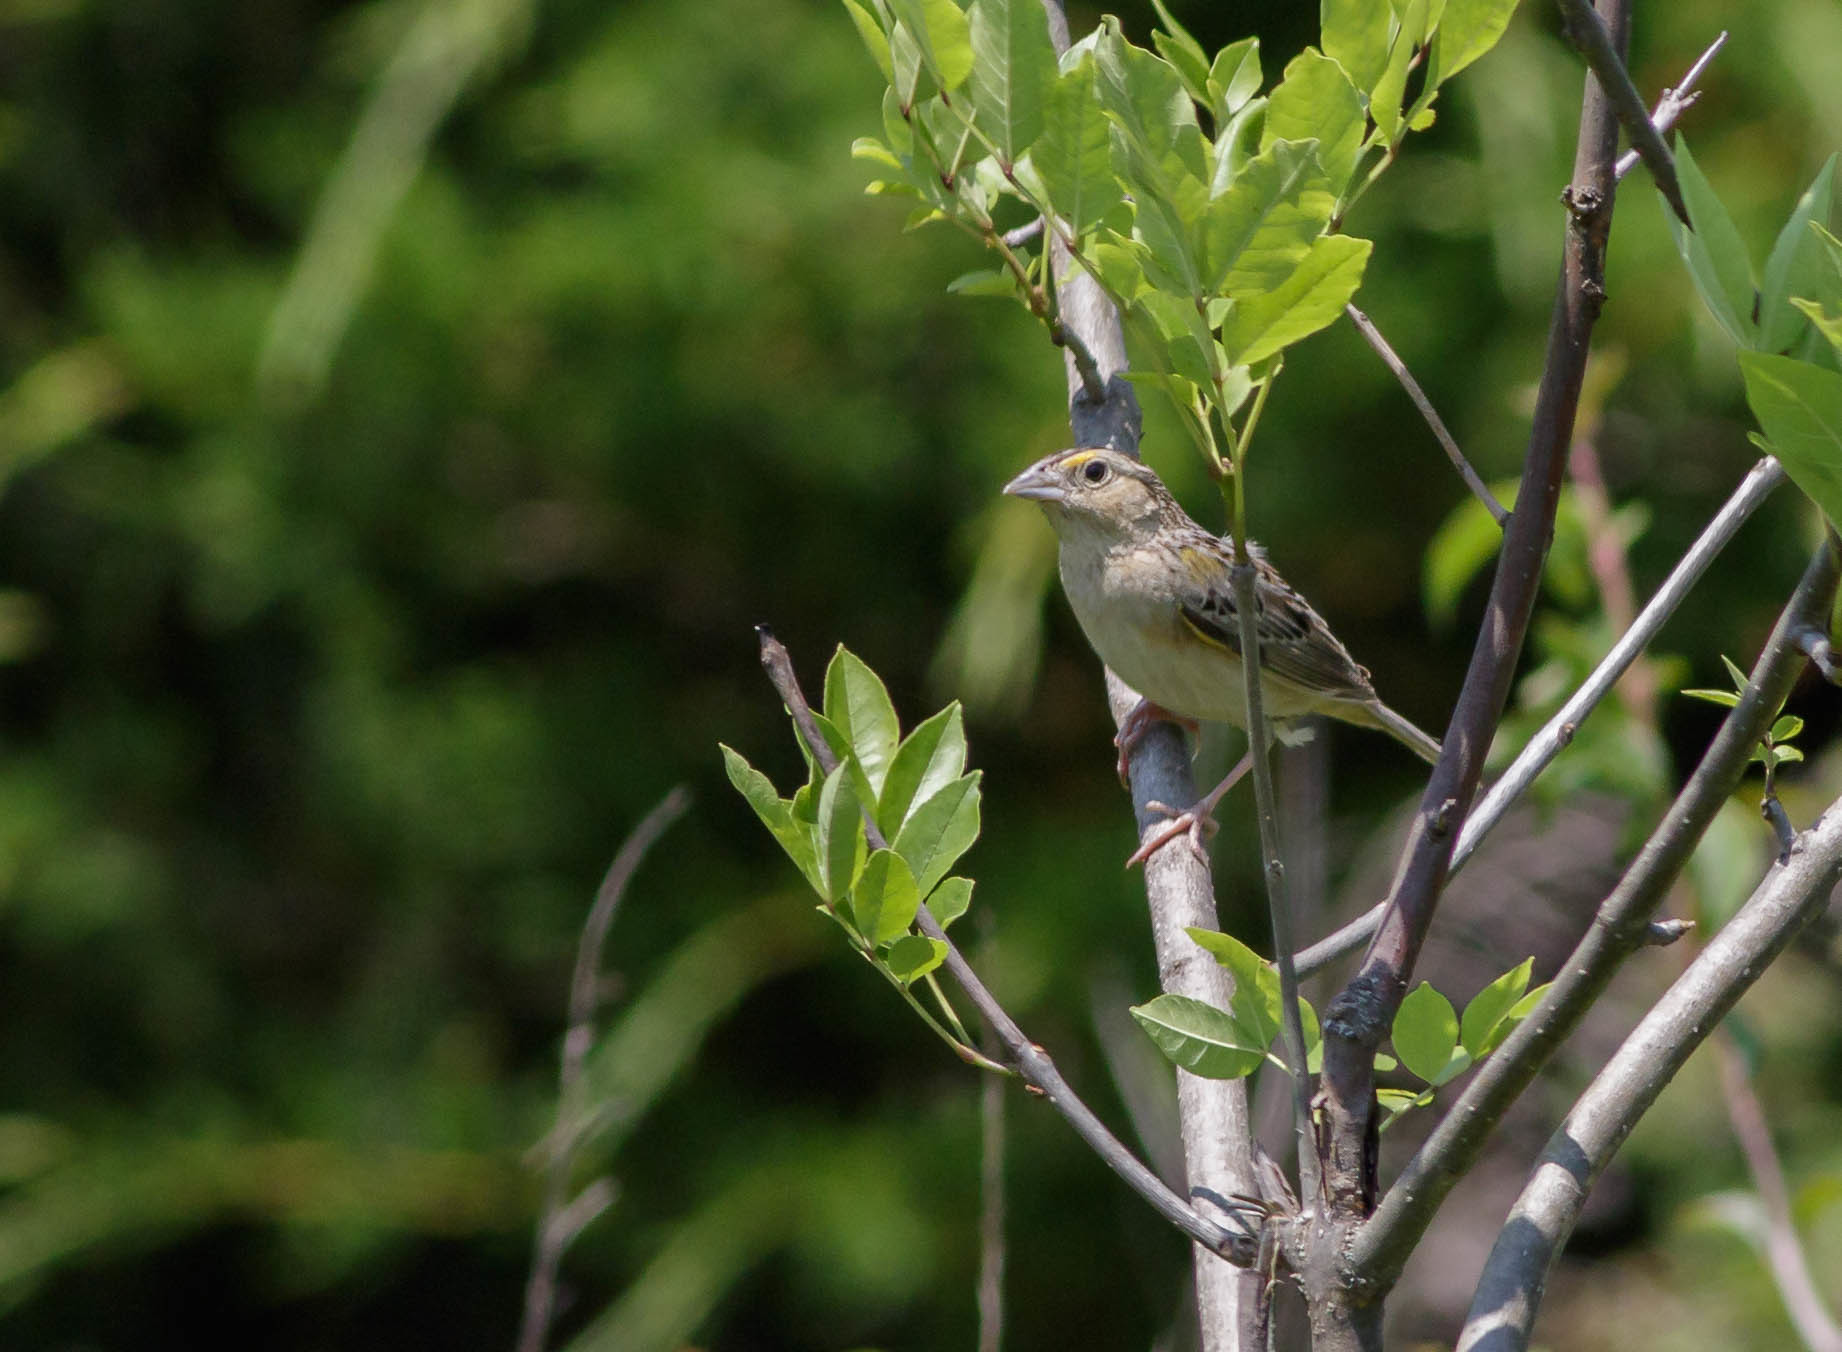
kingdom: Animalia
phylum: Chordata
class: Aves
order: Passeriformes
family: Passerellidae
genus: Ammodramus
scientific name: Ammodramus savannarum
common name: Grasshopper sparrow
